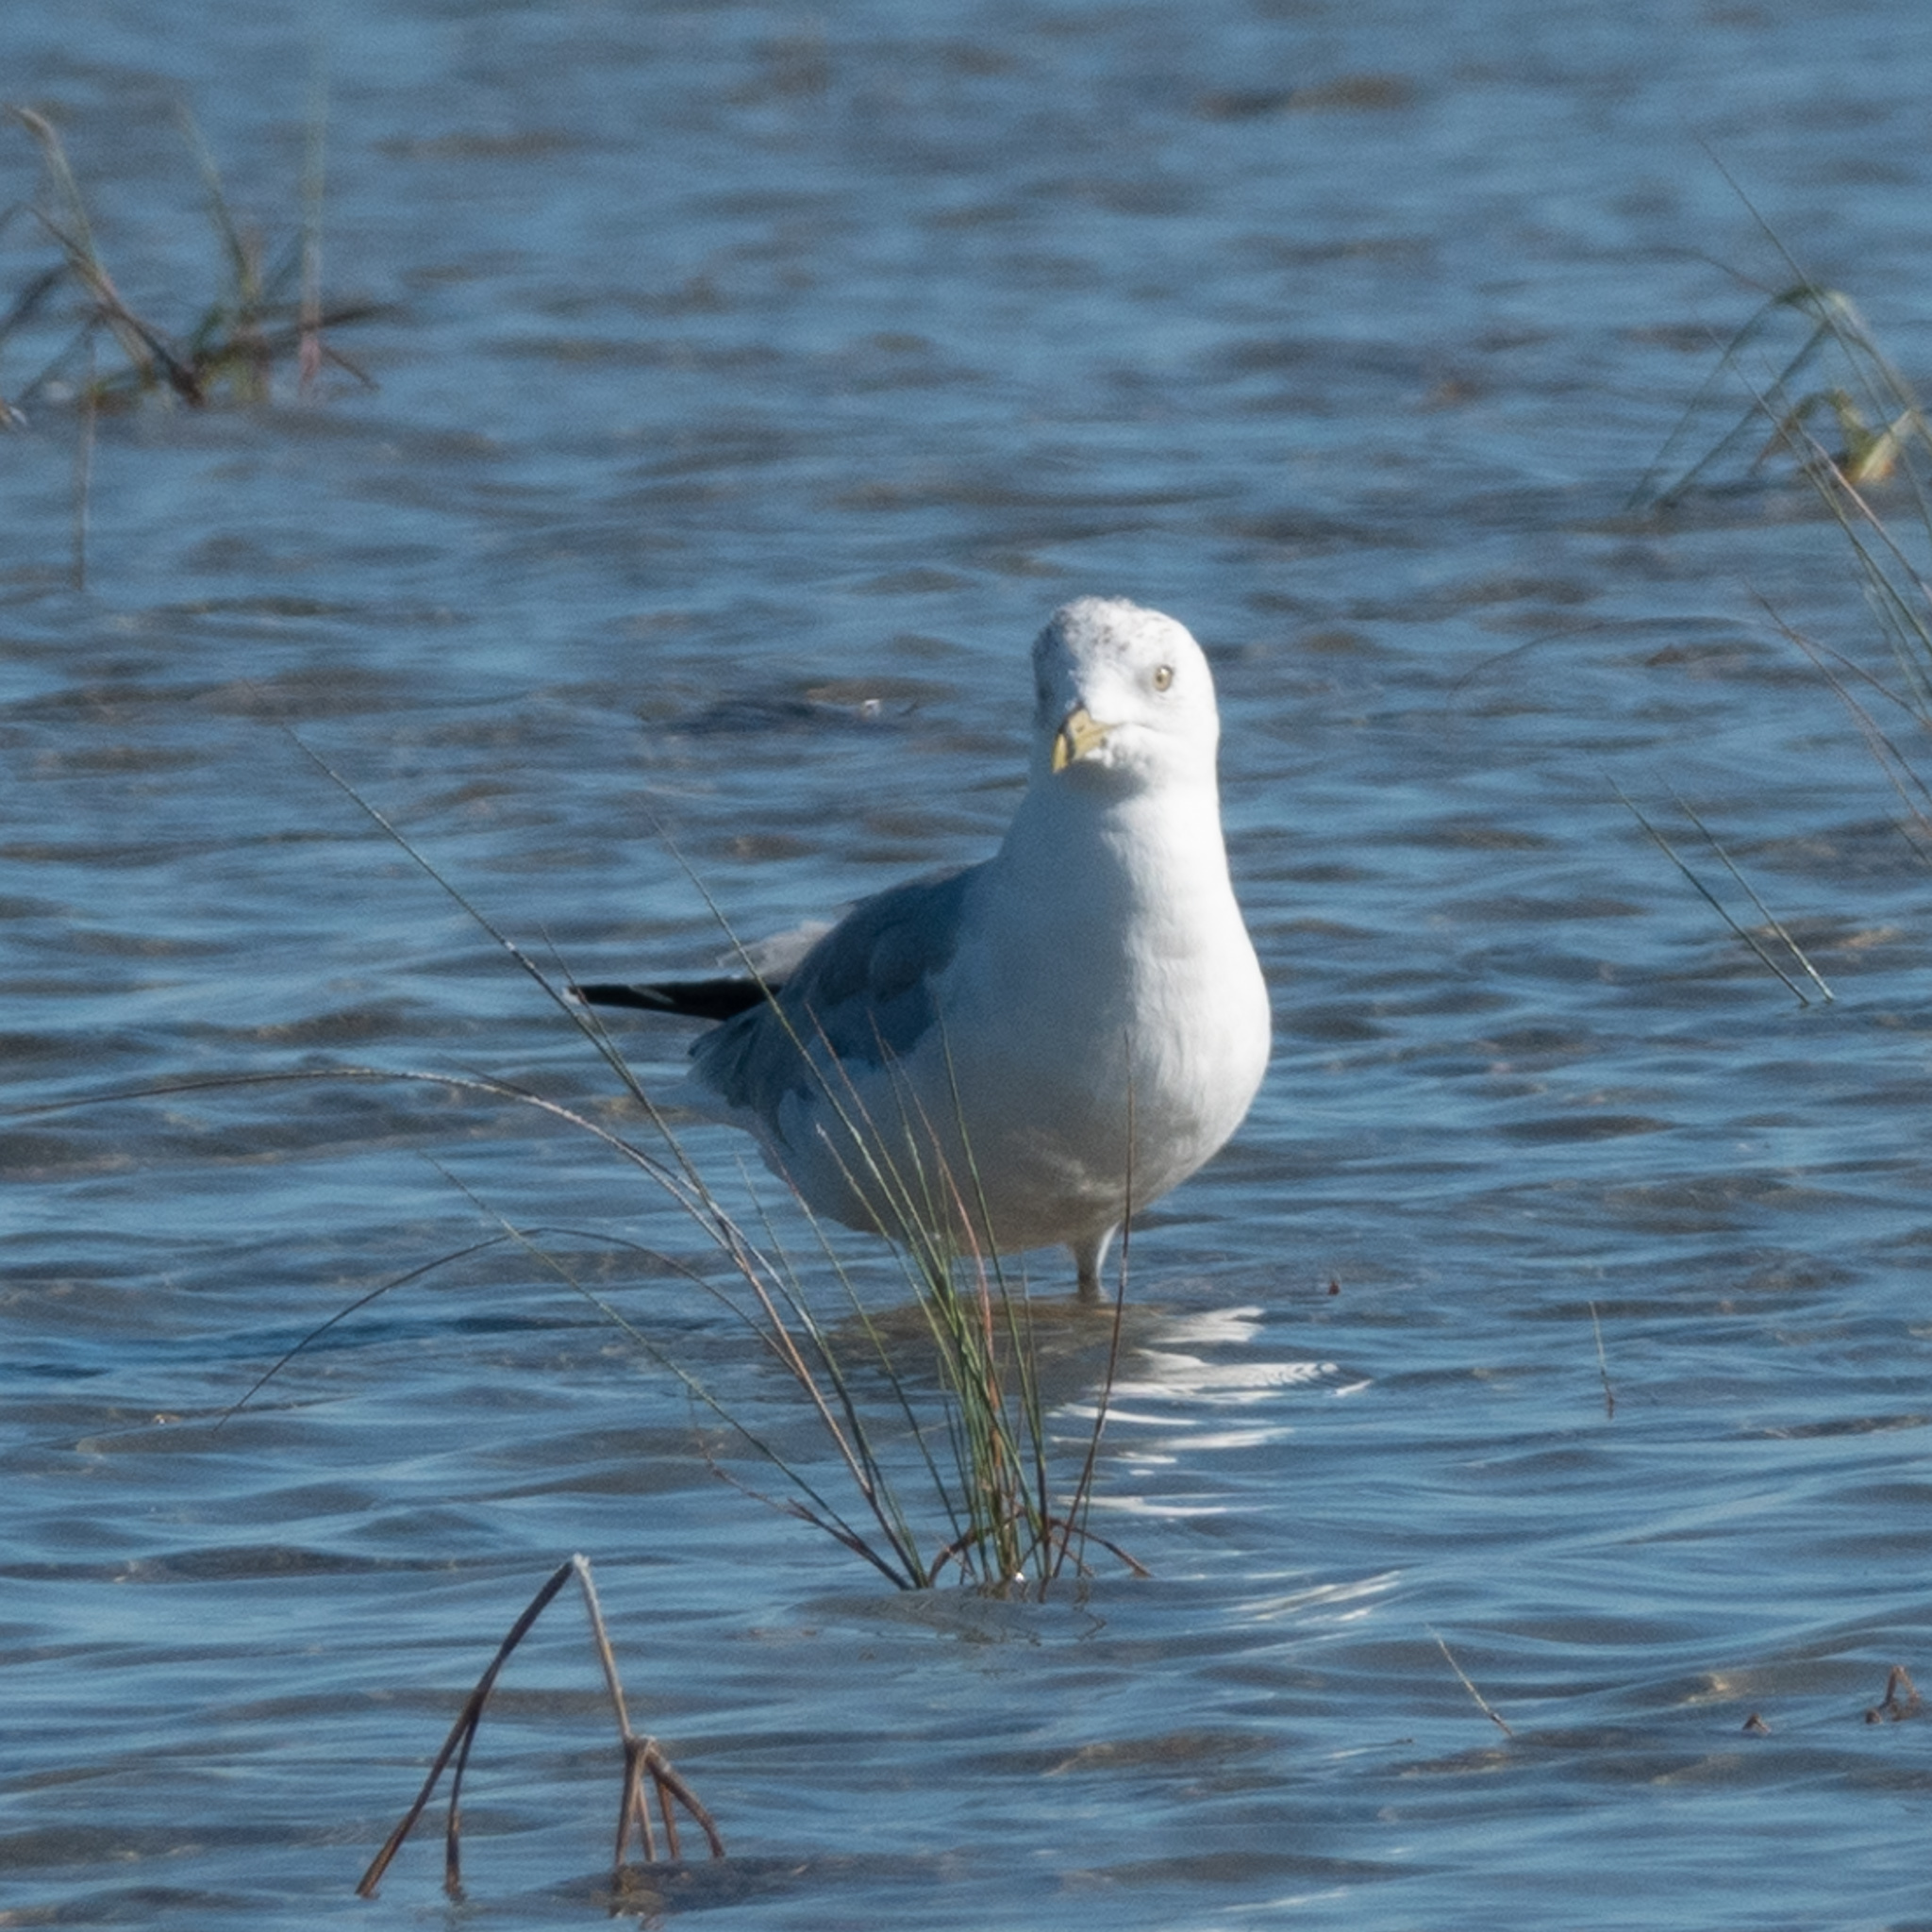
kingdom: Animalia
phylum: Chordata
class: Aves
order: Charadriiformes
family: Laridae
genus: Larus
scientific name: Larus delawarensis
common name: Ring-billed gull
